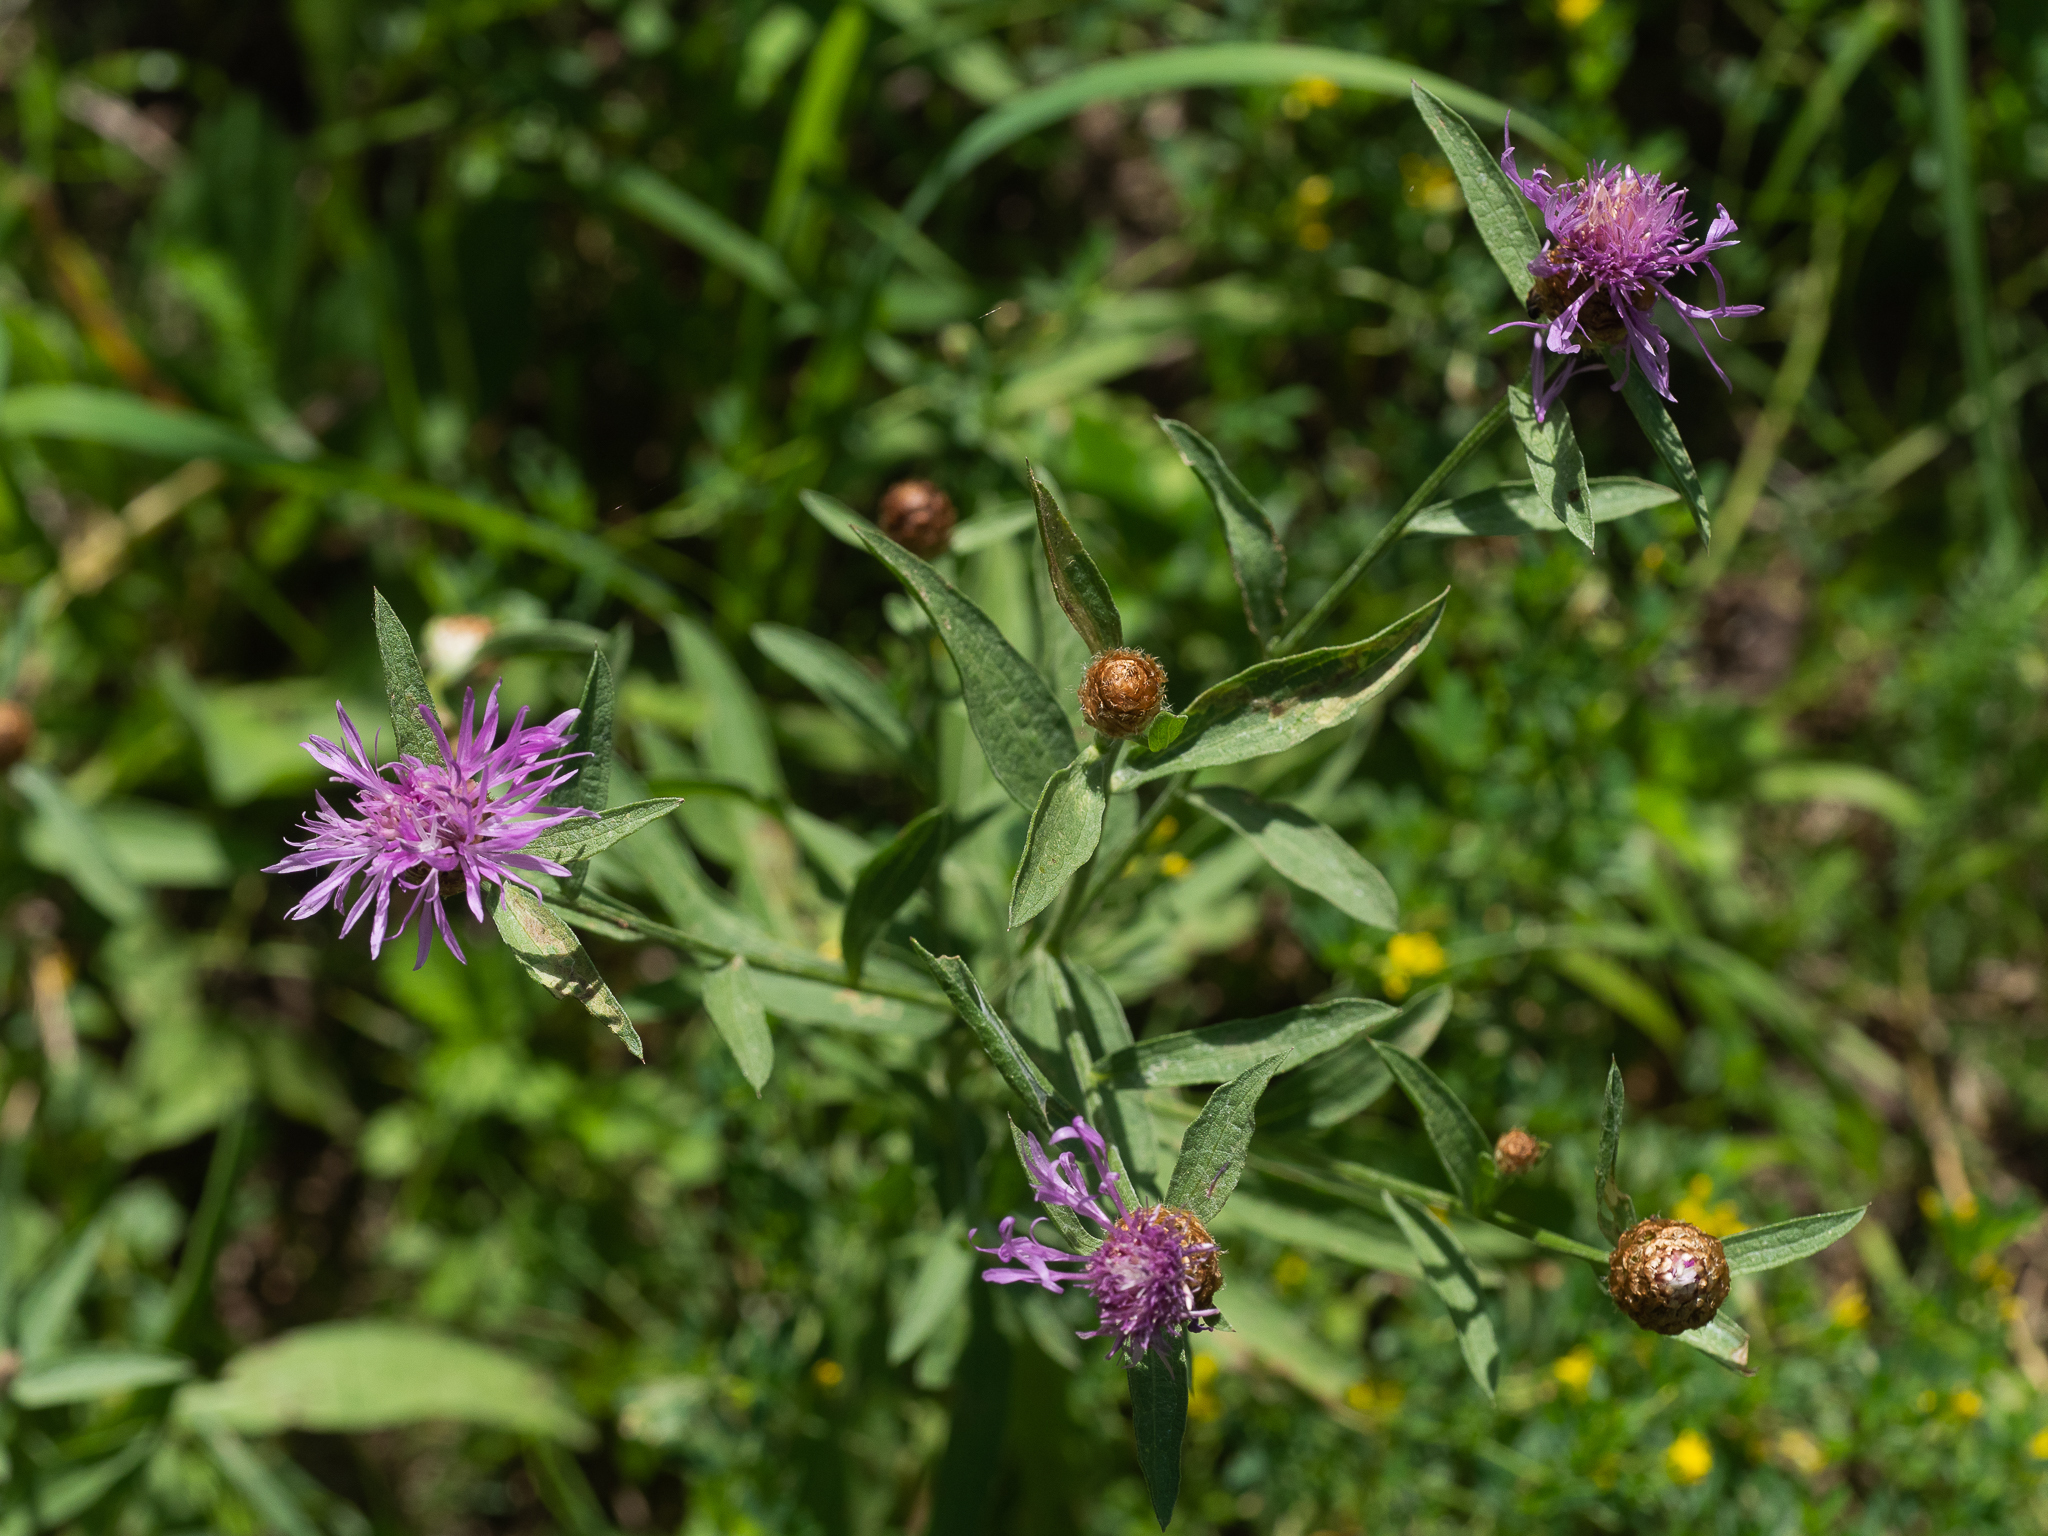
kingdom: Plantae
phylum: Tracheophyta
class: Magnoliopsida
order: Asterales
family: Asteraceae
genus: Centaurea
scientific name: Centaurea jacea
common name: Brown knapweed
